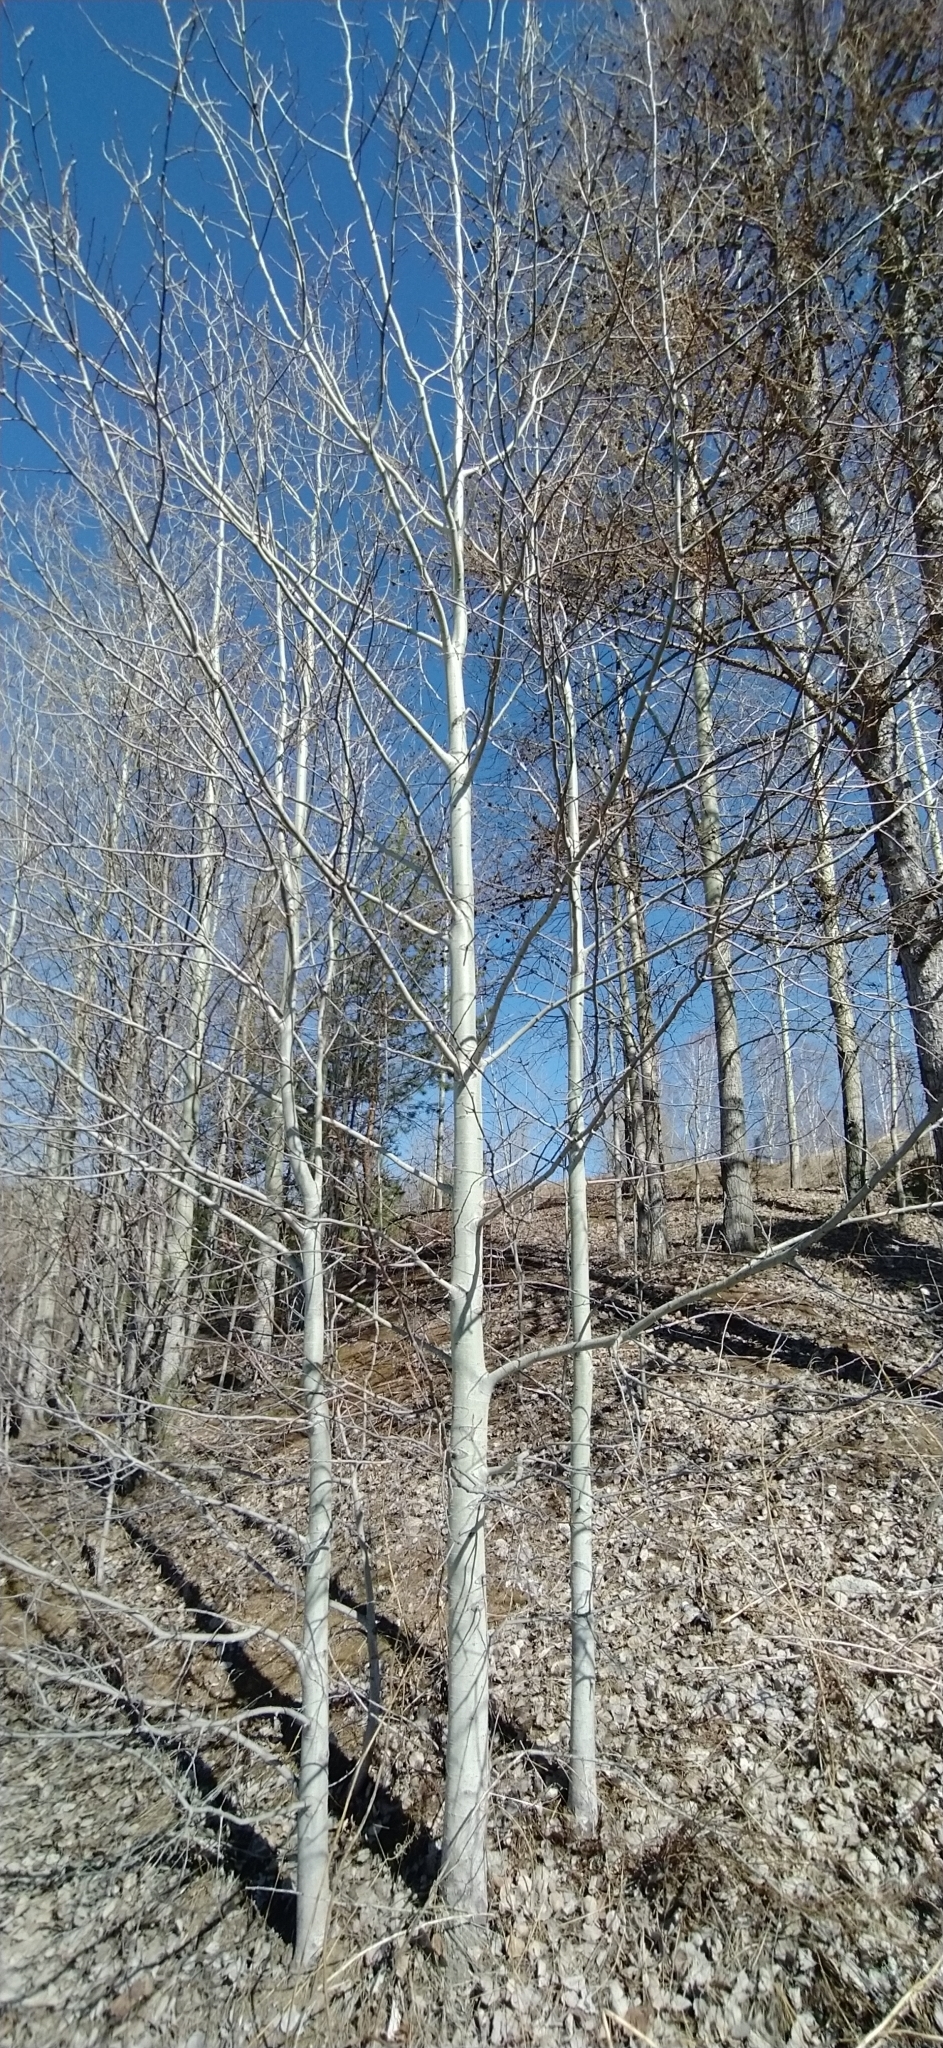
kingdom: Plantae
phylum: Tracheophyta
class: Magnoliopsida
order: Malpighiales
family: Salicaceae
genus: Populus
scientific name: Populus tremula
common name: European aspen
